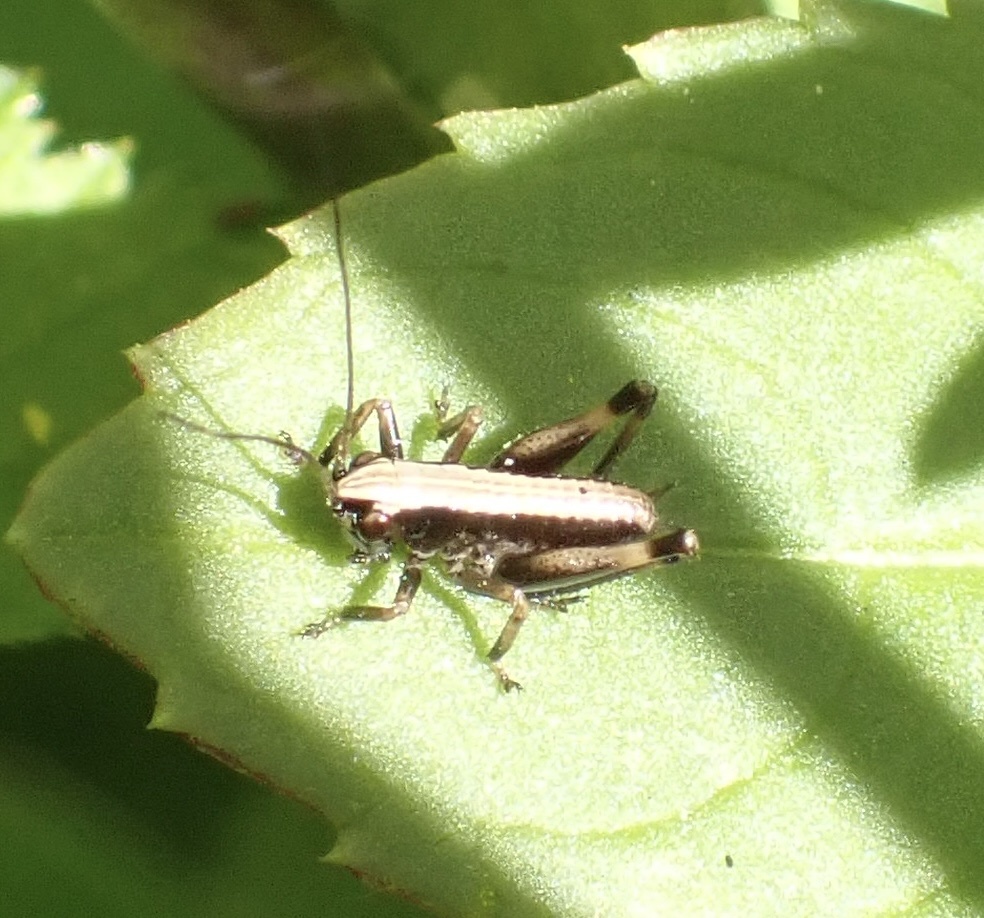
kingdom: Animalia
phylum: Arthropoda
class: Insecta
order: Orthoptera
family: Tettigoniidae
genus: Pholidoptera
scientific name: Pholidoptera griseoaptera
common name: Dark bush-cricket
